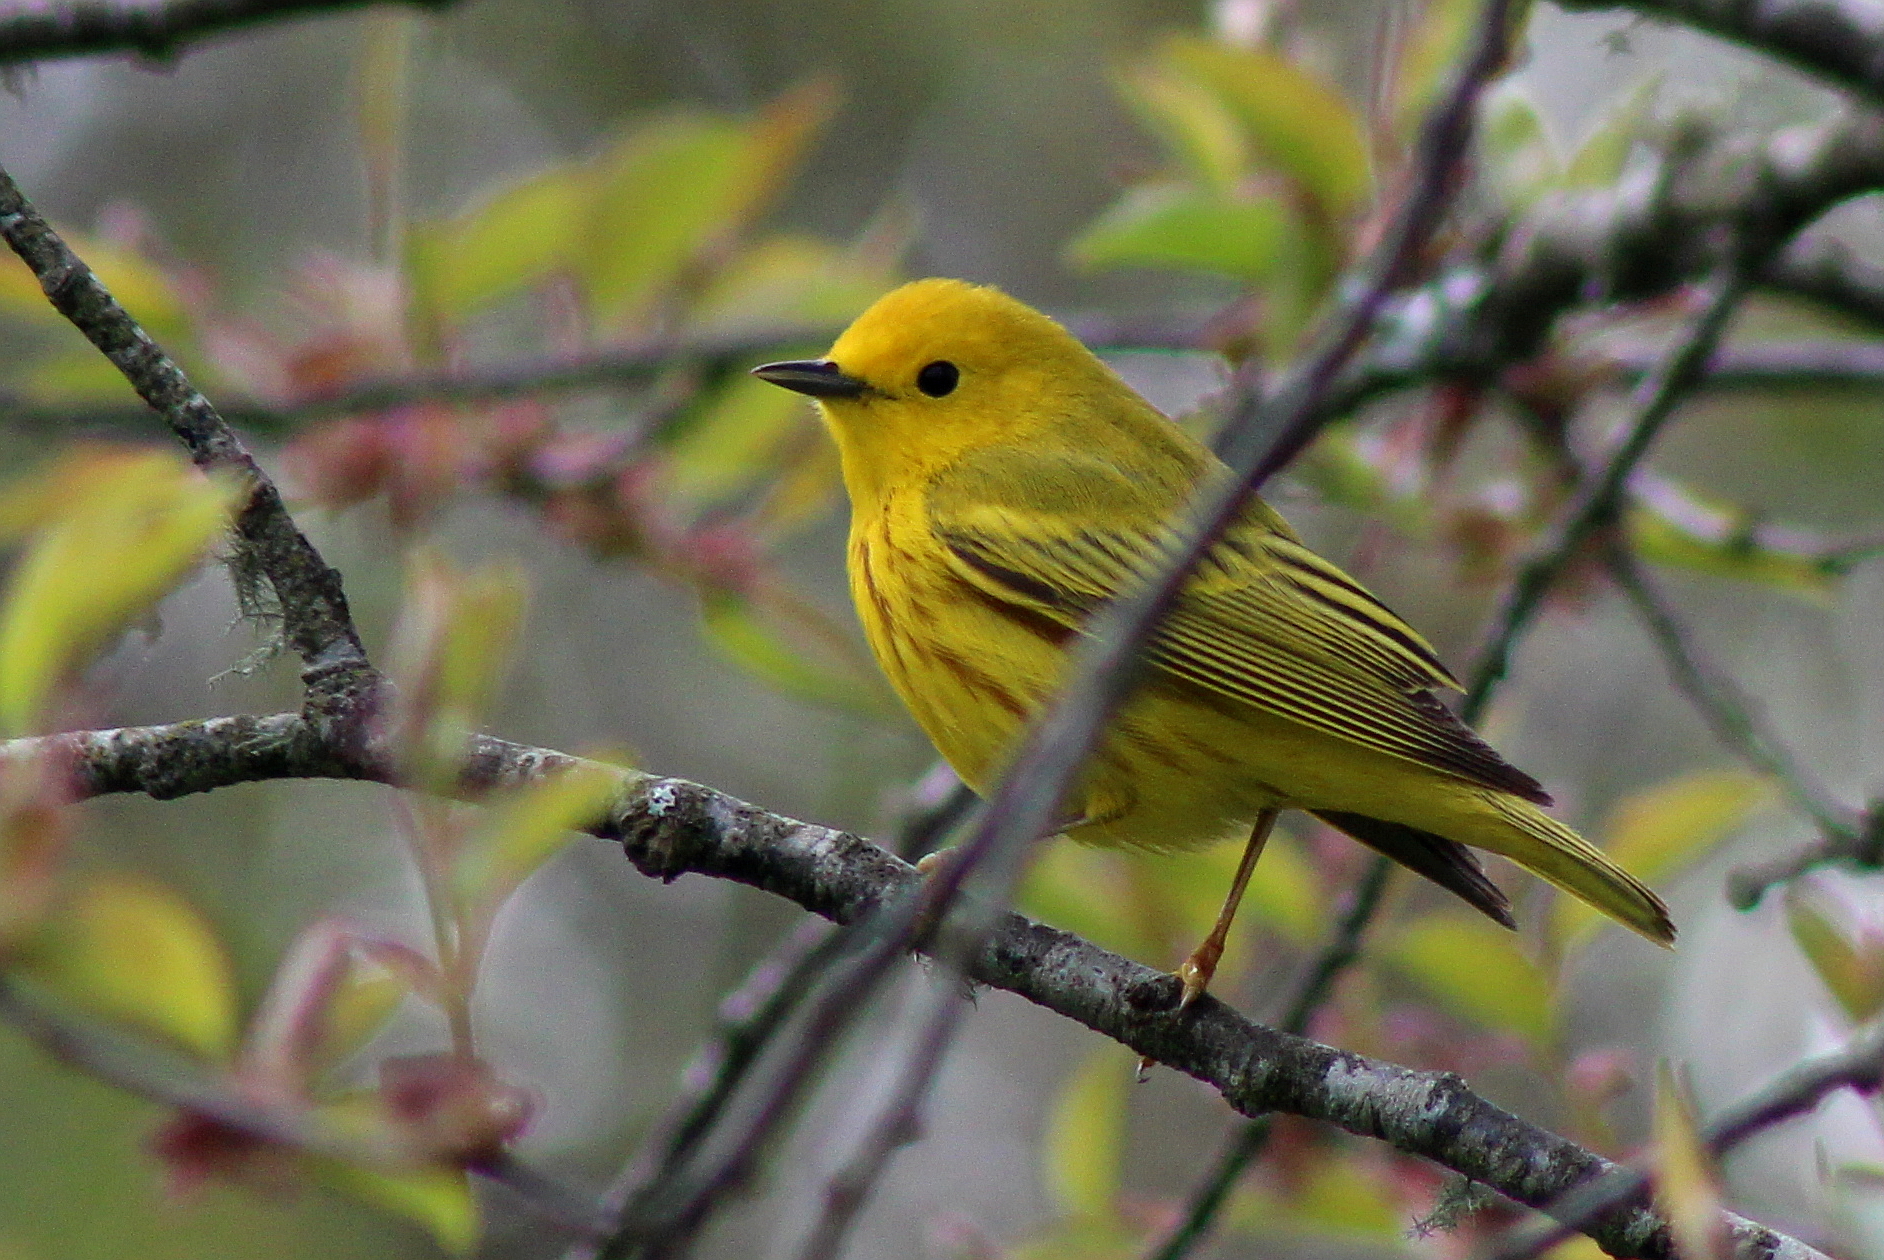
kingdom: Animalia
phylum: Chordata
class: Aves
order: Passeriformes
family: Parulidae
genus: Setophaga
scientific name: Setophaga petechia
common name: Yellow warbler
